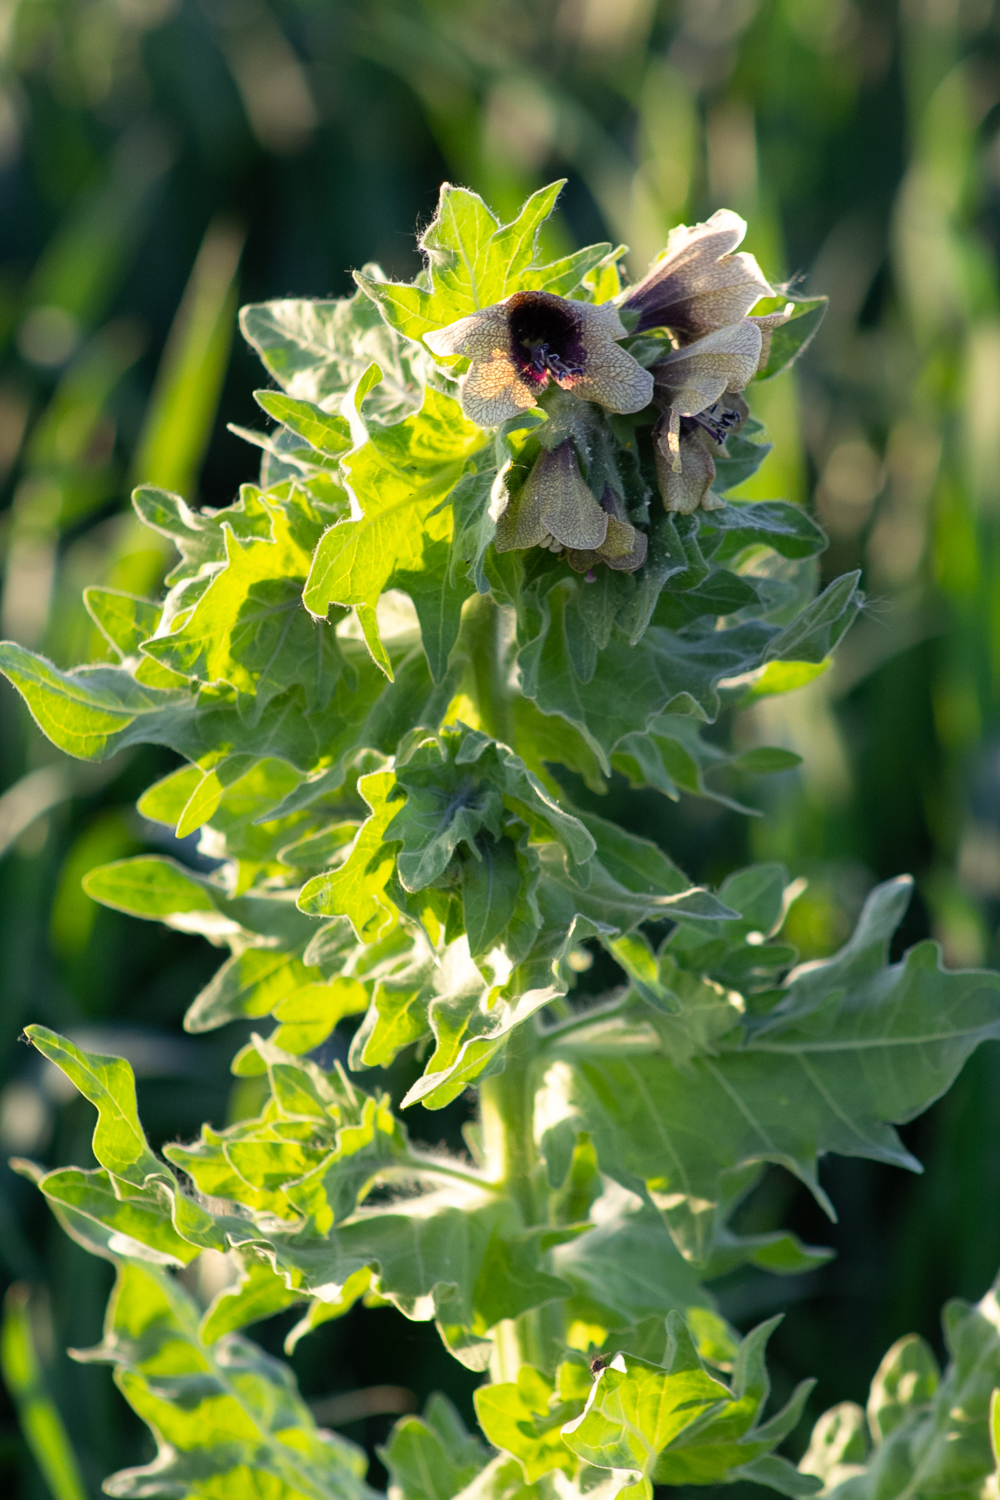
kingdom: Plantae
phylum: Tracheophyta
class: Magnoliopsida
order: Solanales
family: Solanaceae
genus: Hyoscyamus
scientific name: Hyoscyamus niger
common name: Henbane
